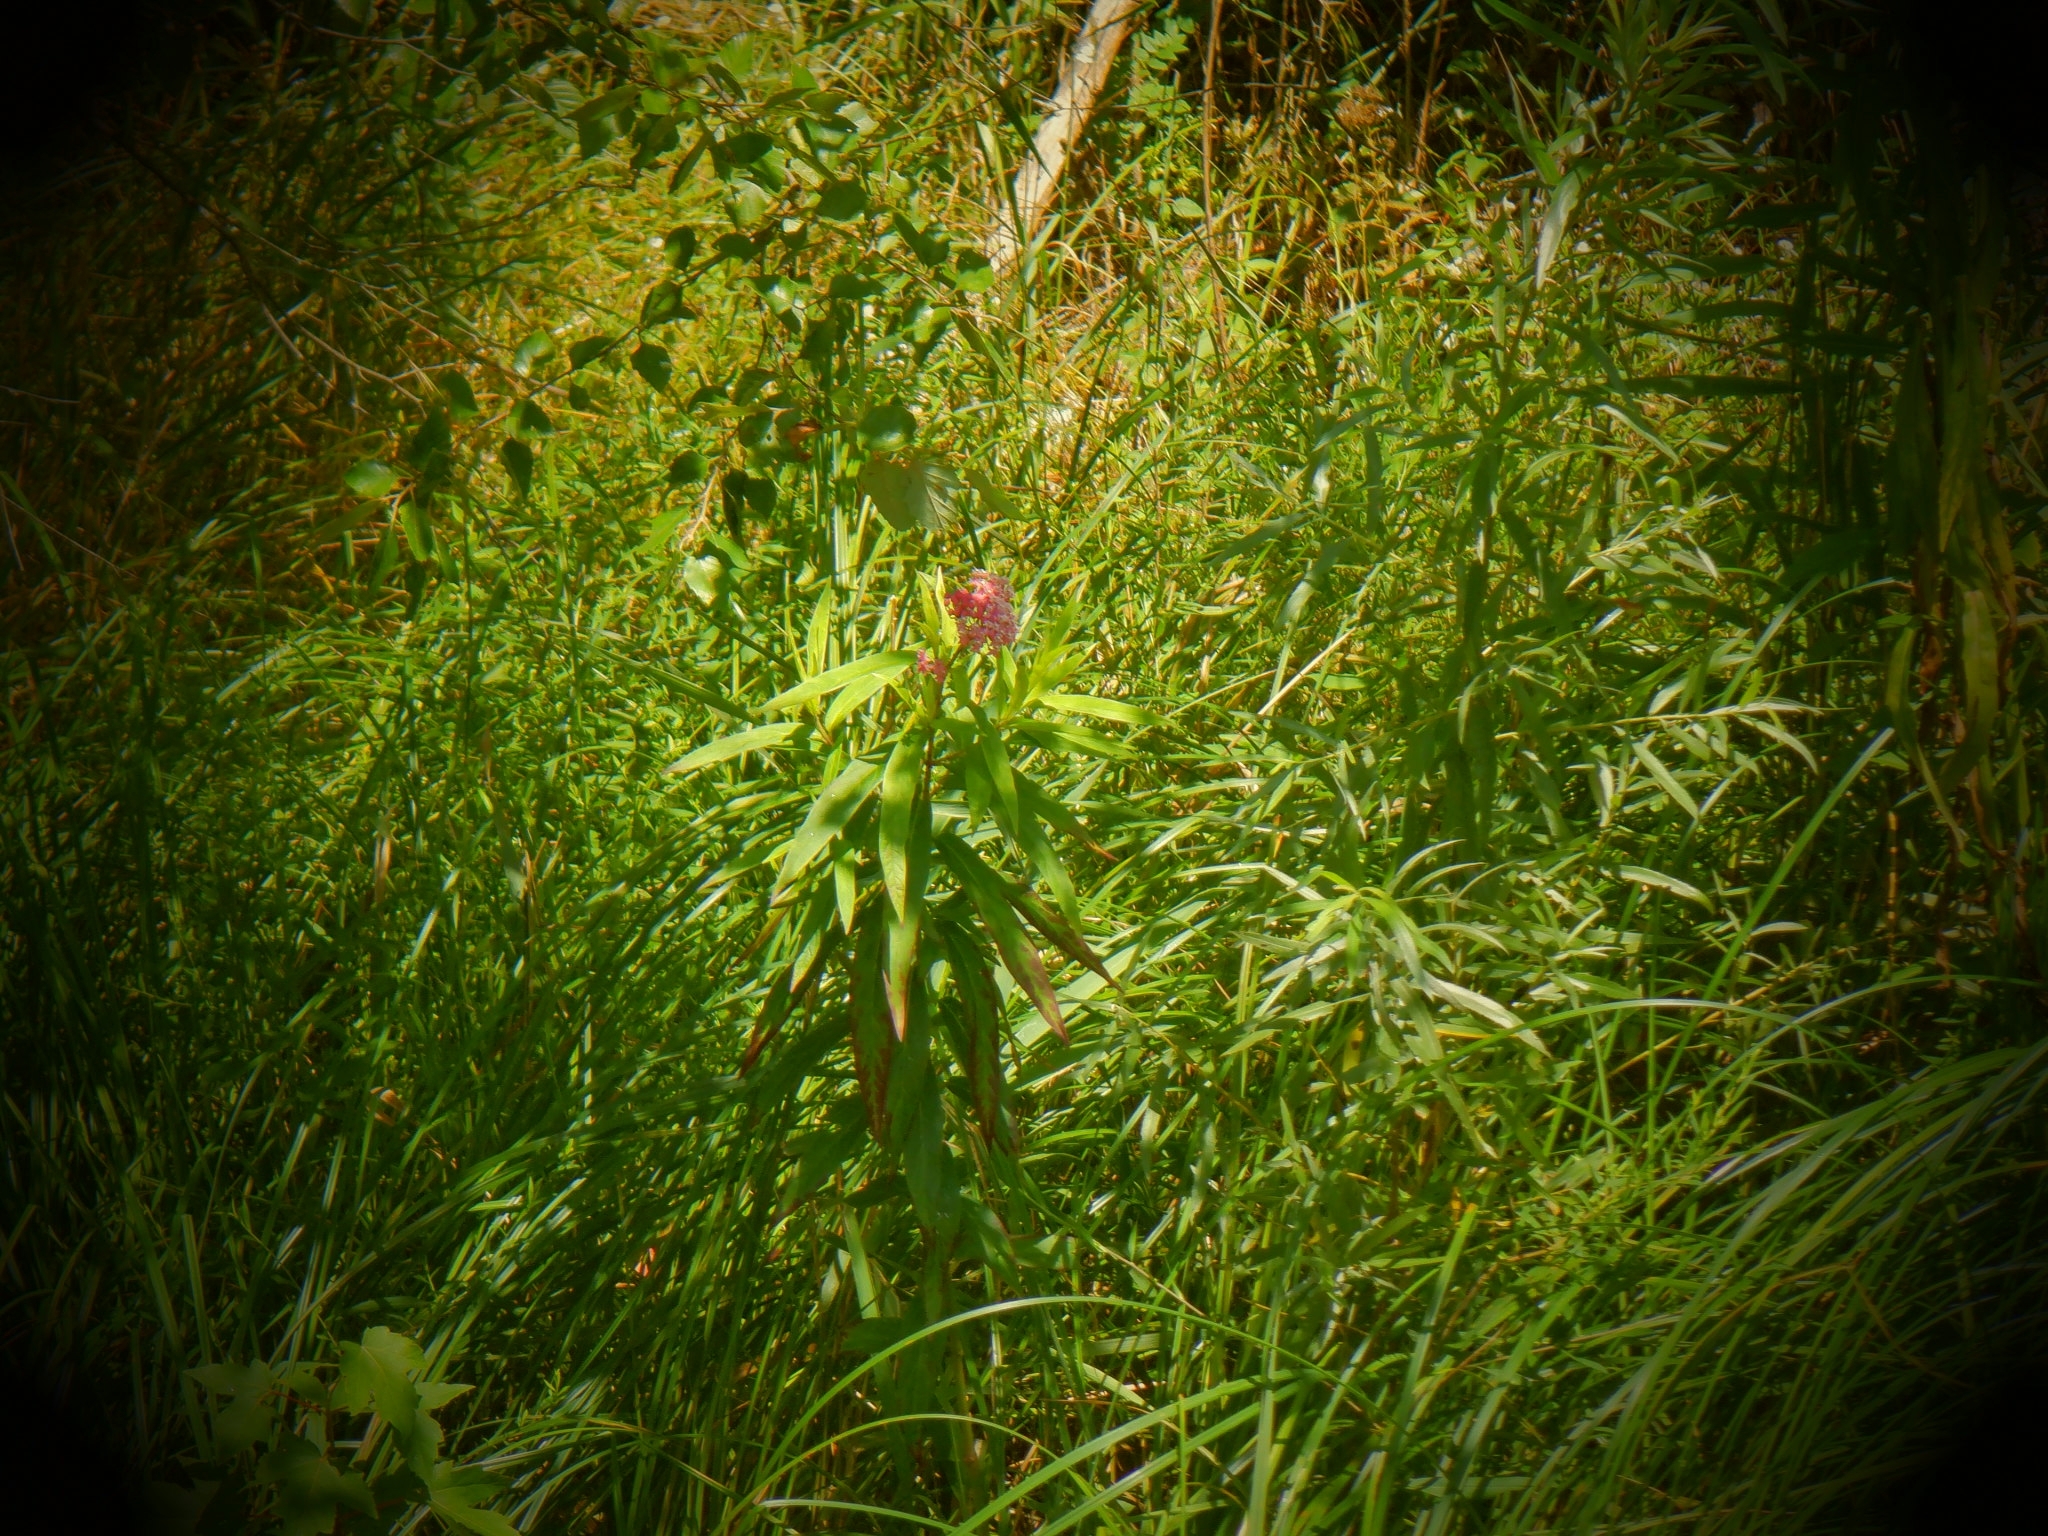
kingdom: Plantae
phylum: Tracheophyta
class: Magnoliopsida
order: Gentianales
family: Apocynaceae
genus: Asclepias
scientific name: Asclepias incarnata
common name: Swamp milkweed
